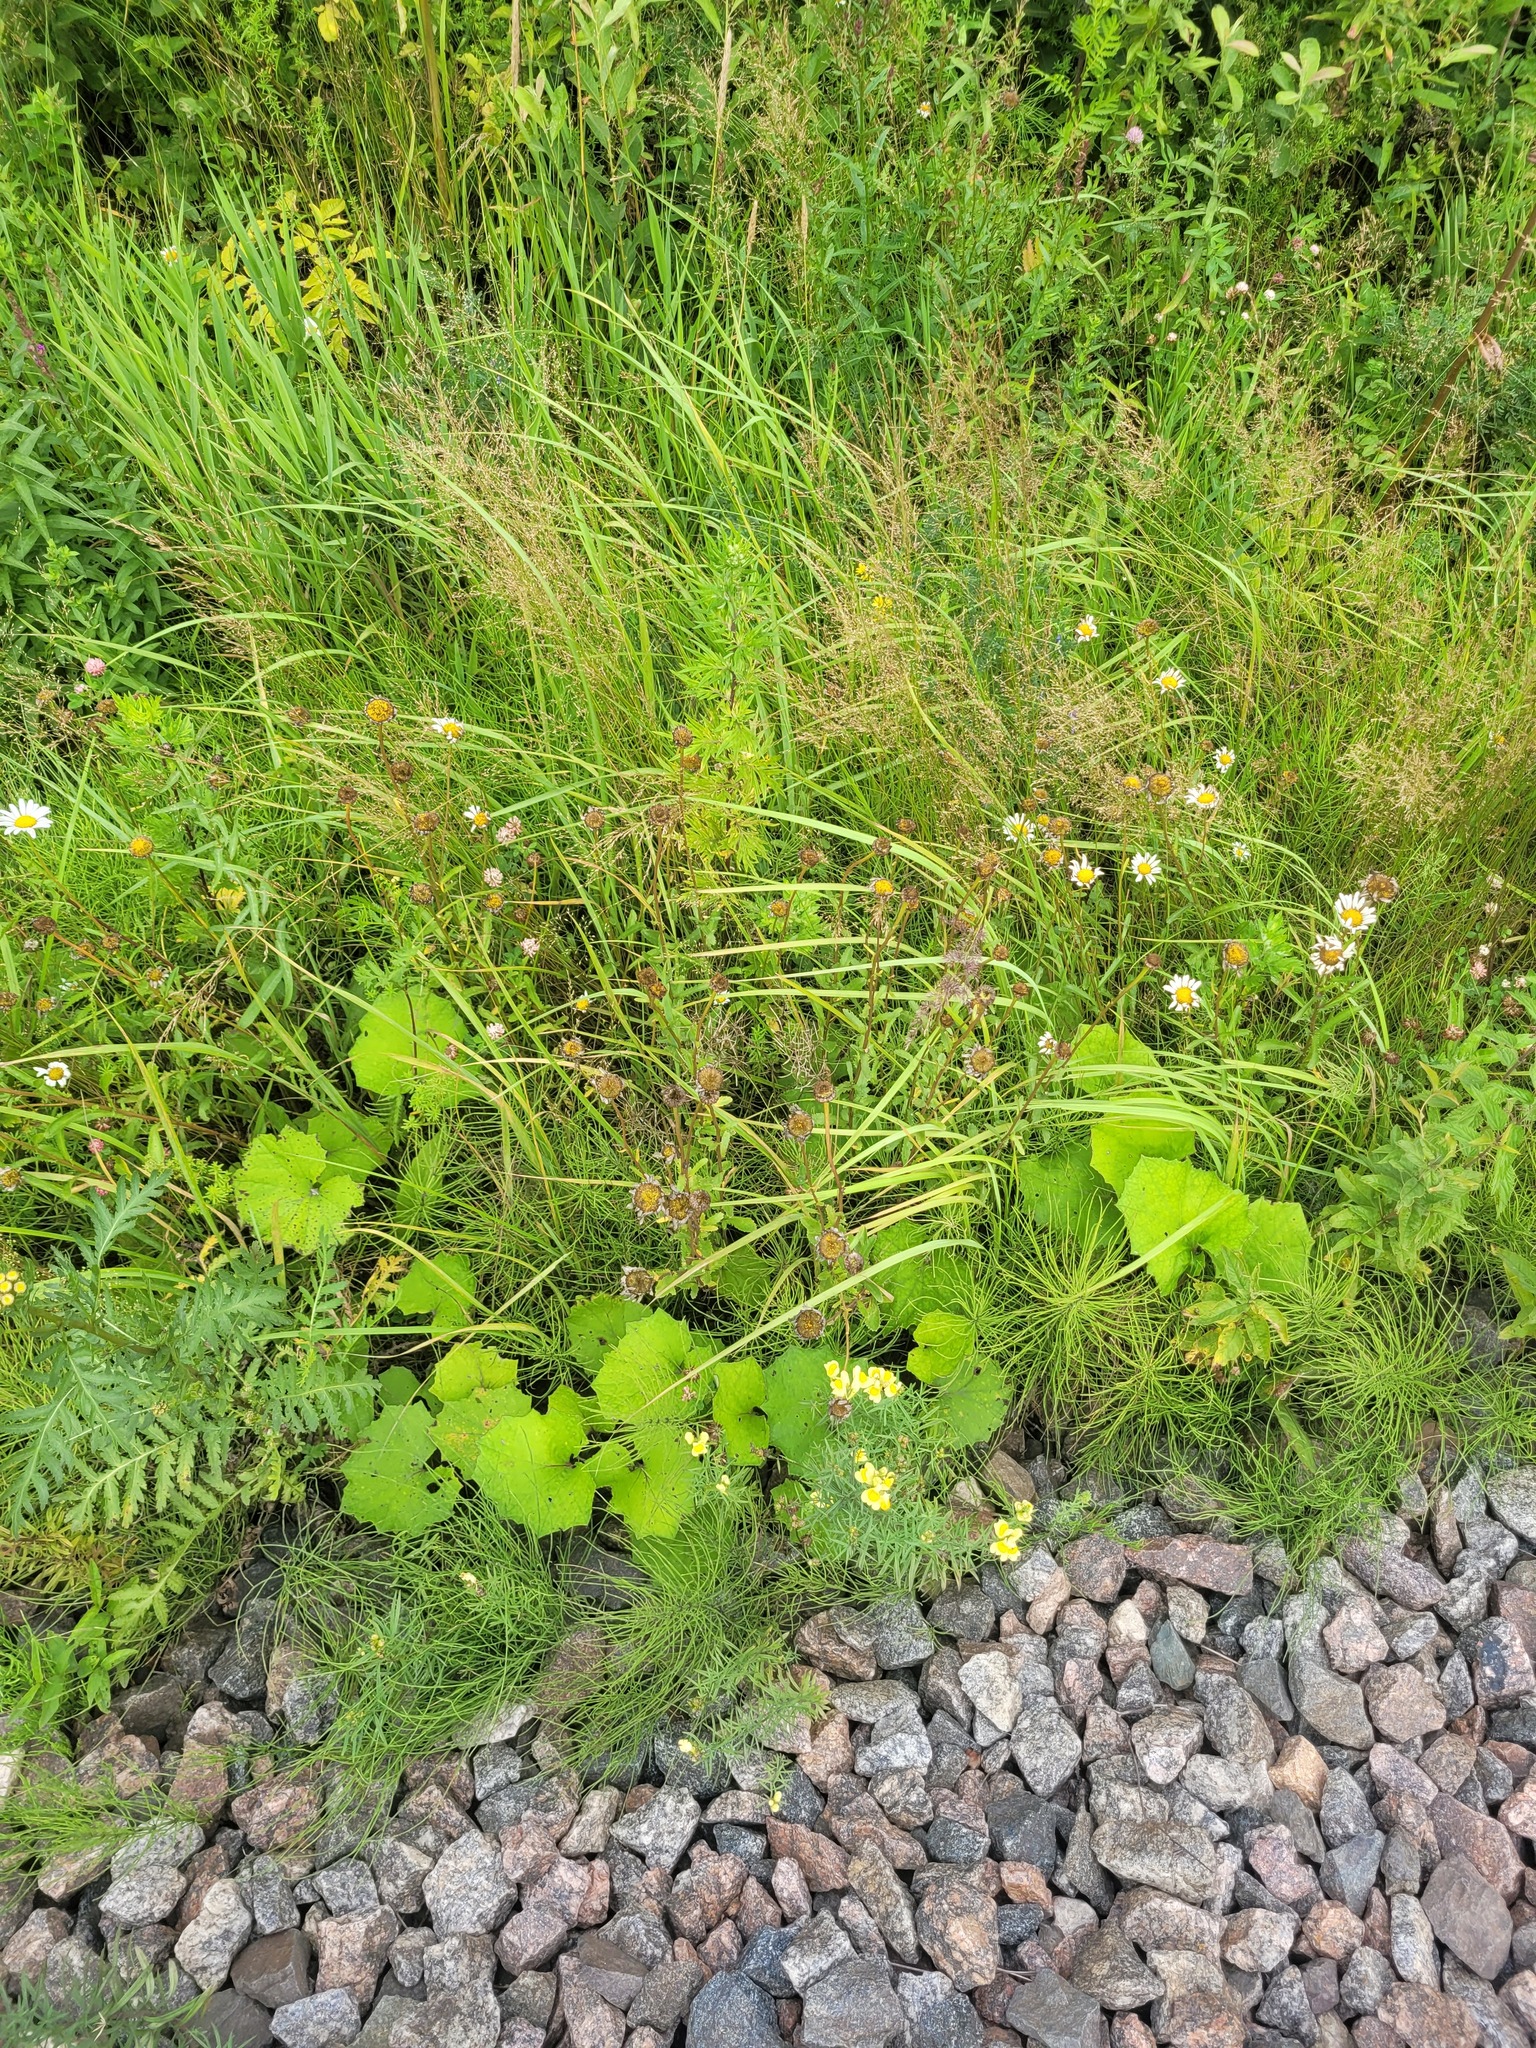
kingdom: Plantae
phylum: Tracheophyta
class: Magnoliopsida
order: Asterales
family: Asteraceae
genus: Leucanthemum
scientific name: Leucanthemum vulgare
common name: Oxeye daisy
